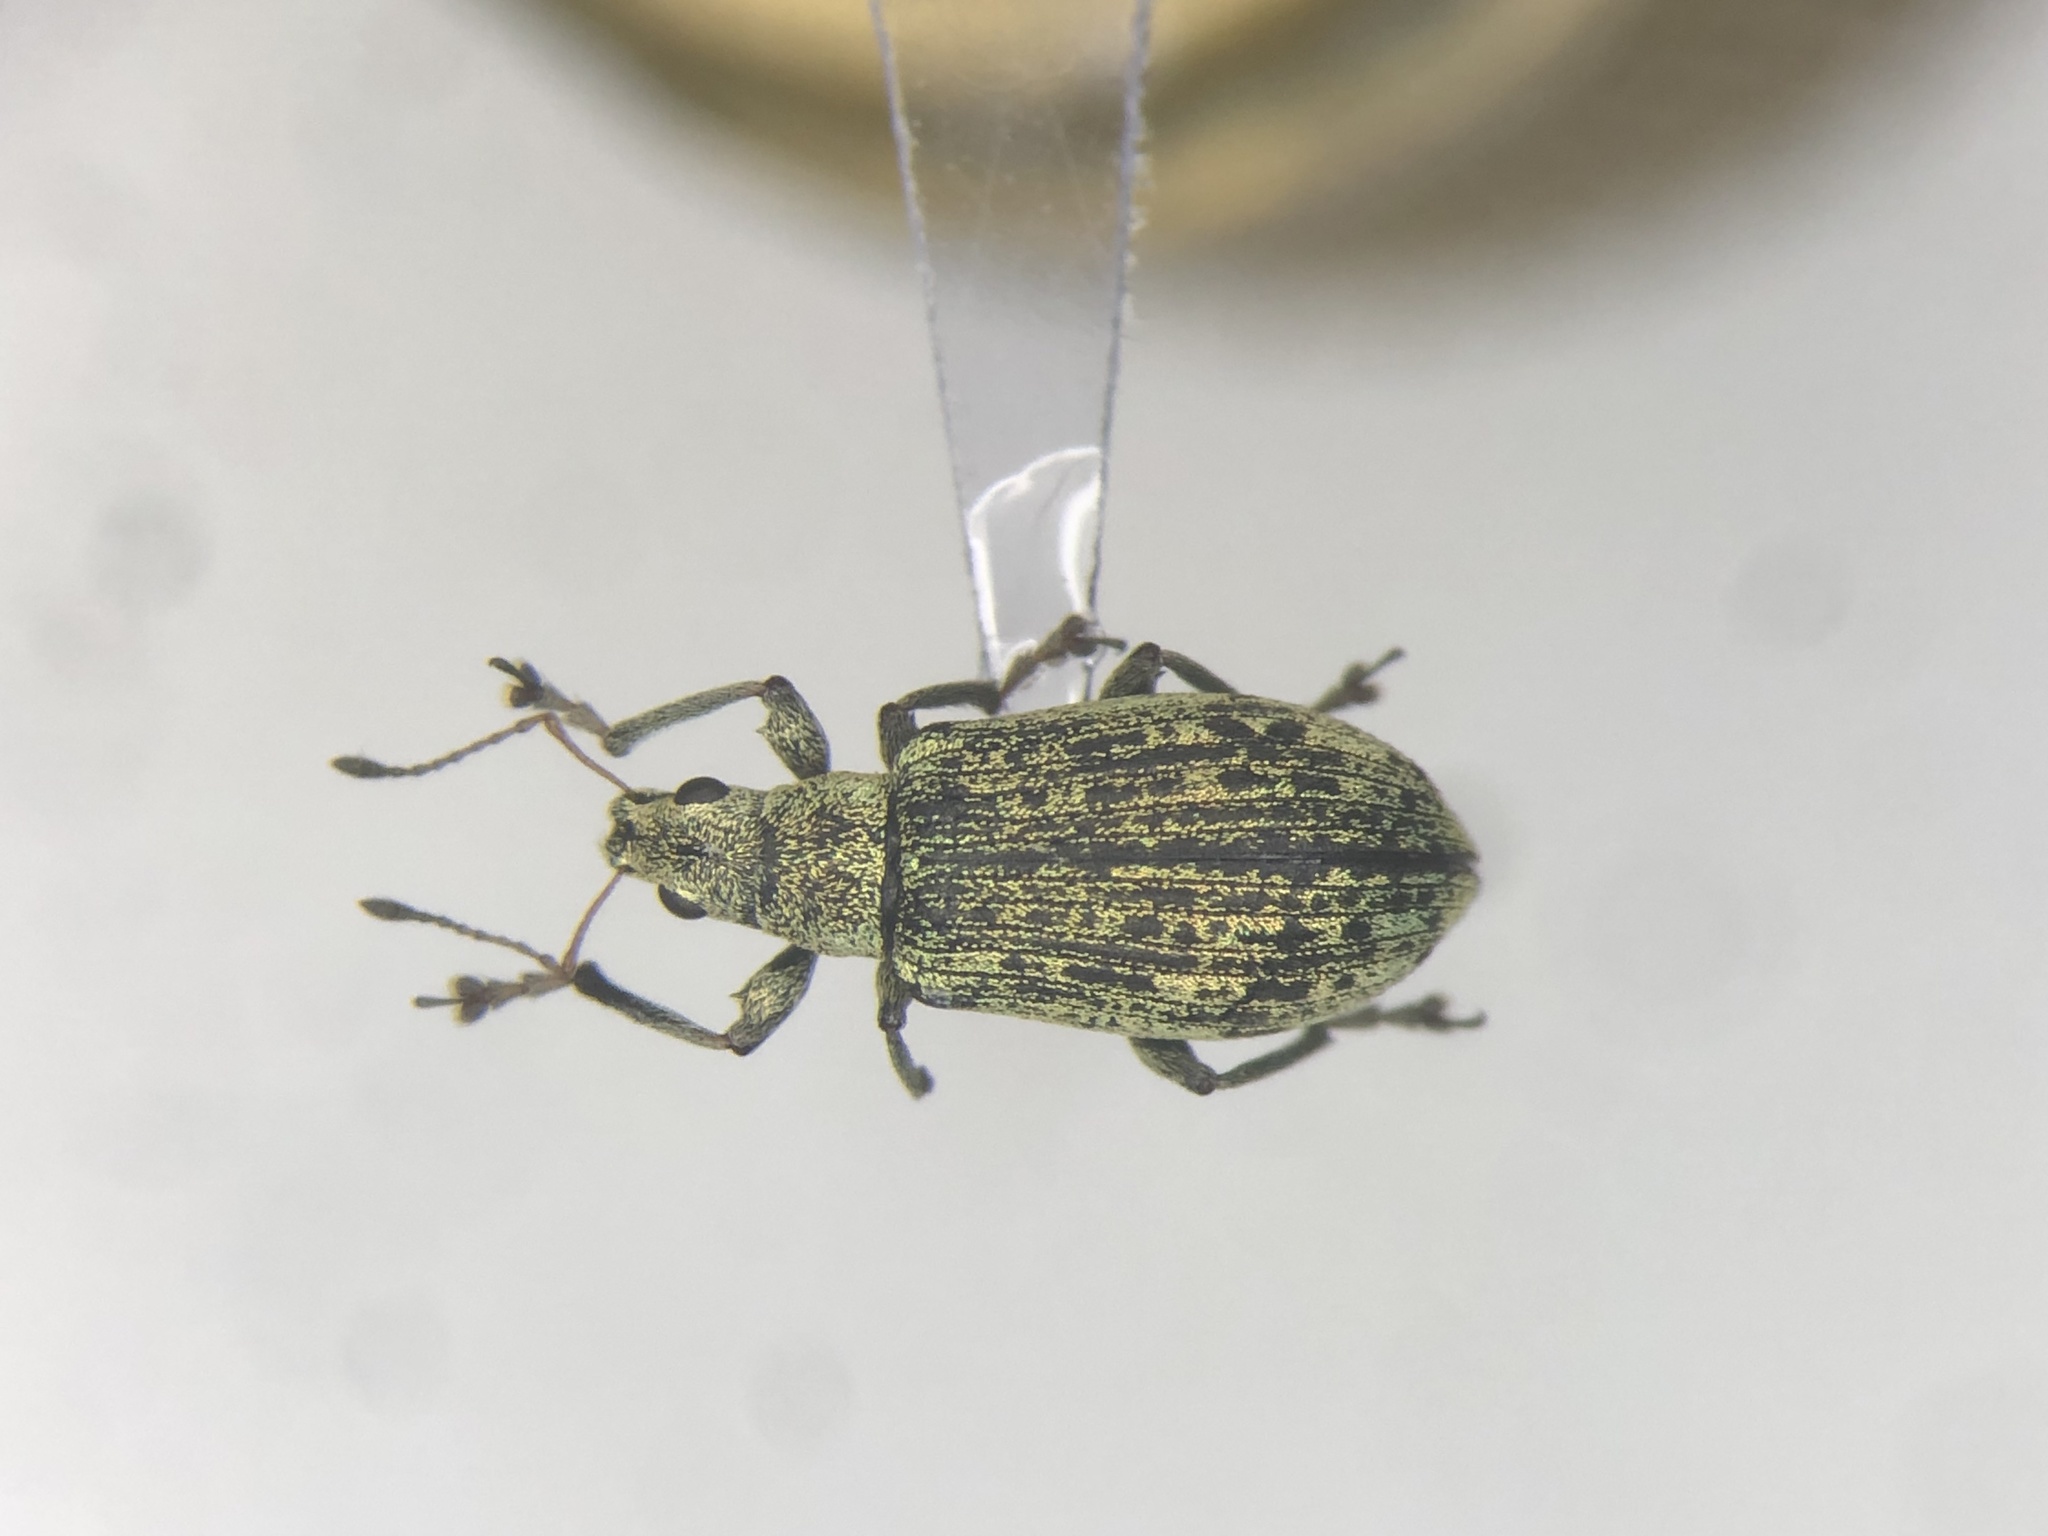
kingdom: Animalia
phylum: Arthropoda
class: Insecta
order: Coleoptera
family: Curculionidae
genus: Polydrusus
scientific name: Polydrusus cervinus
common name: Weevil
